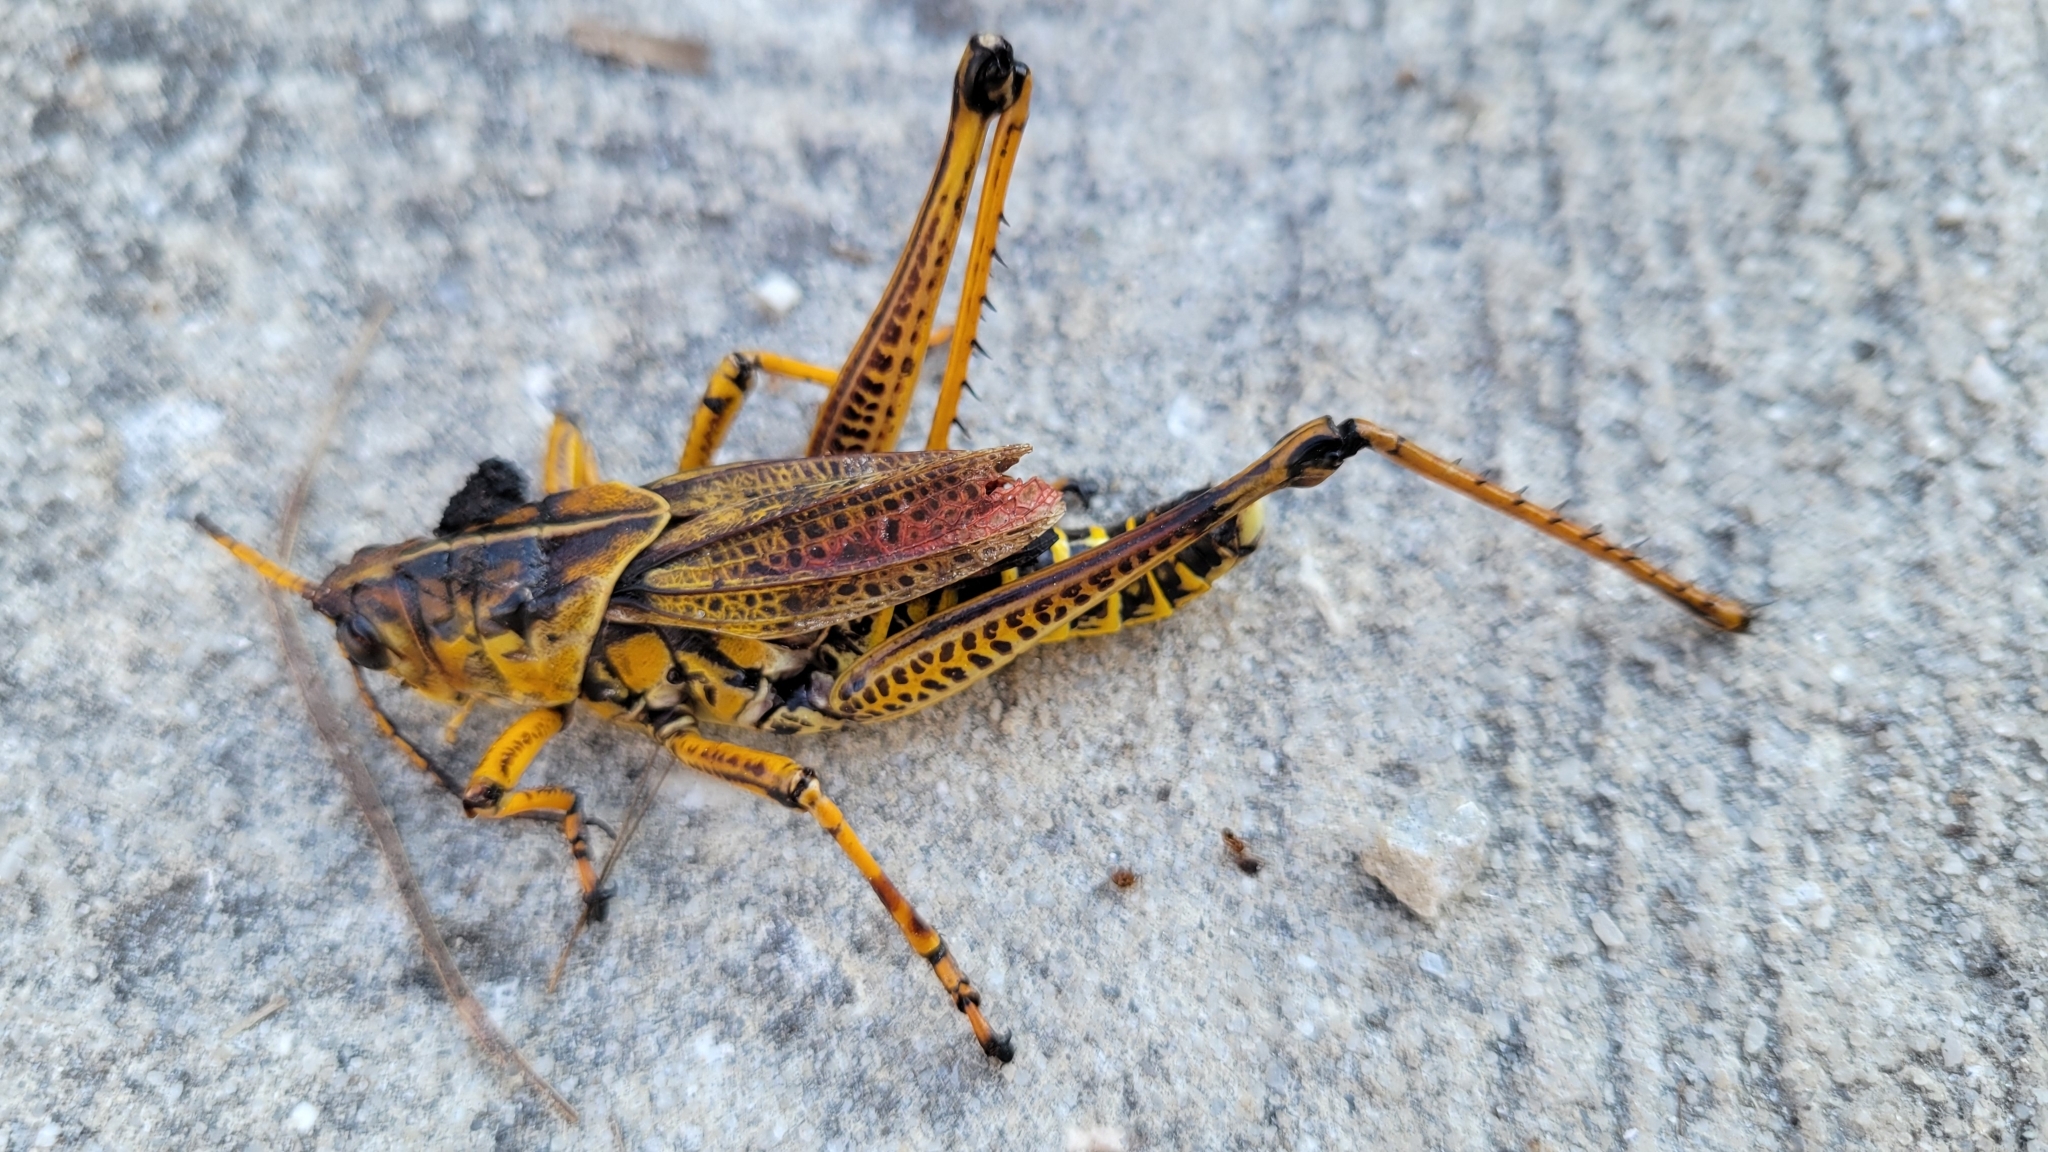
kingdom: Animalia
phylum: Arthropoda
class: Insecta
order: Orthoptera
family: Romaleidae
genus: Romalea
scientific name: Romalea microptera
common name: Eastern lubber grasshopper
